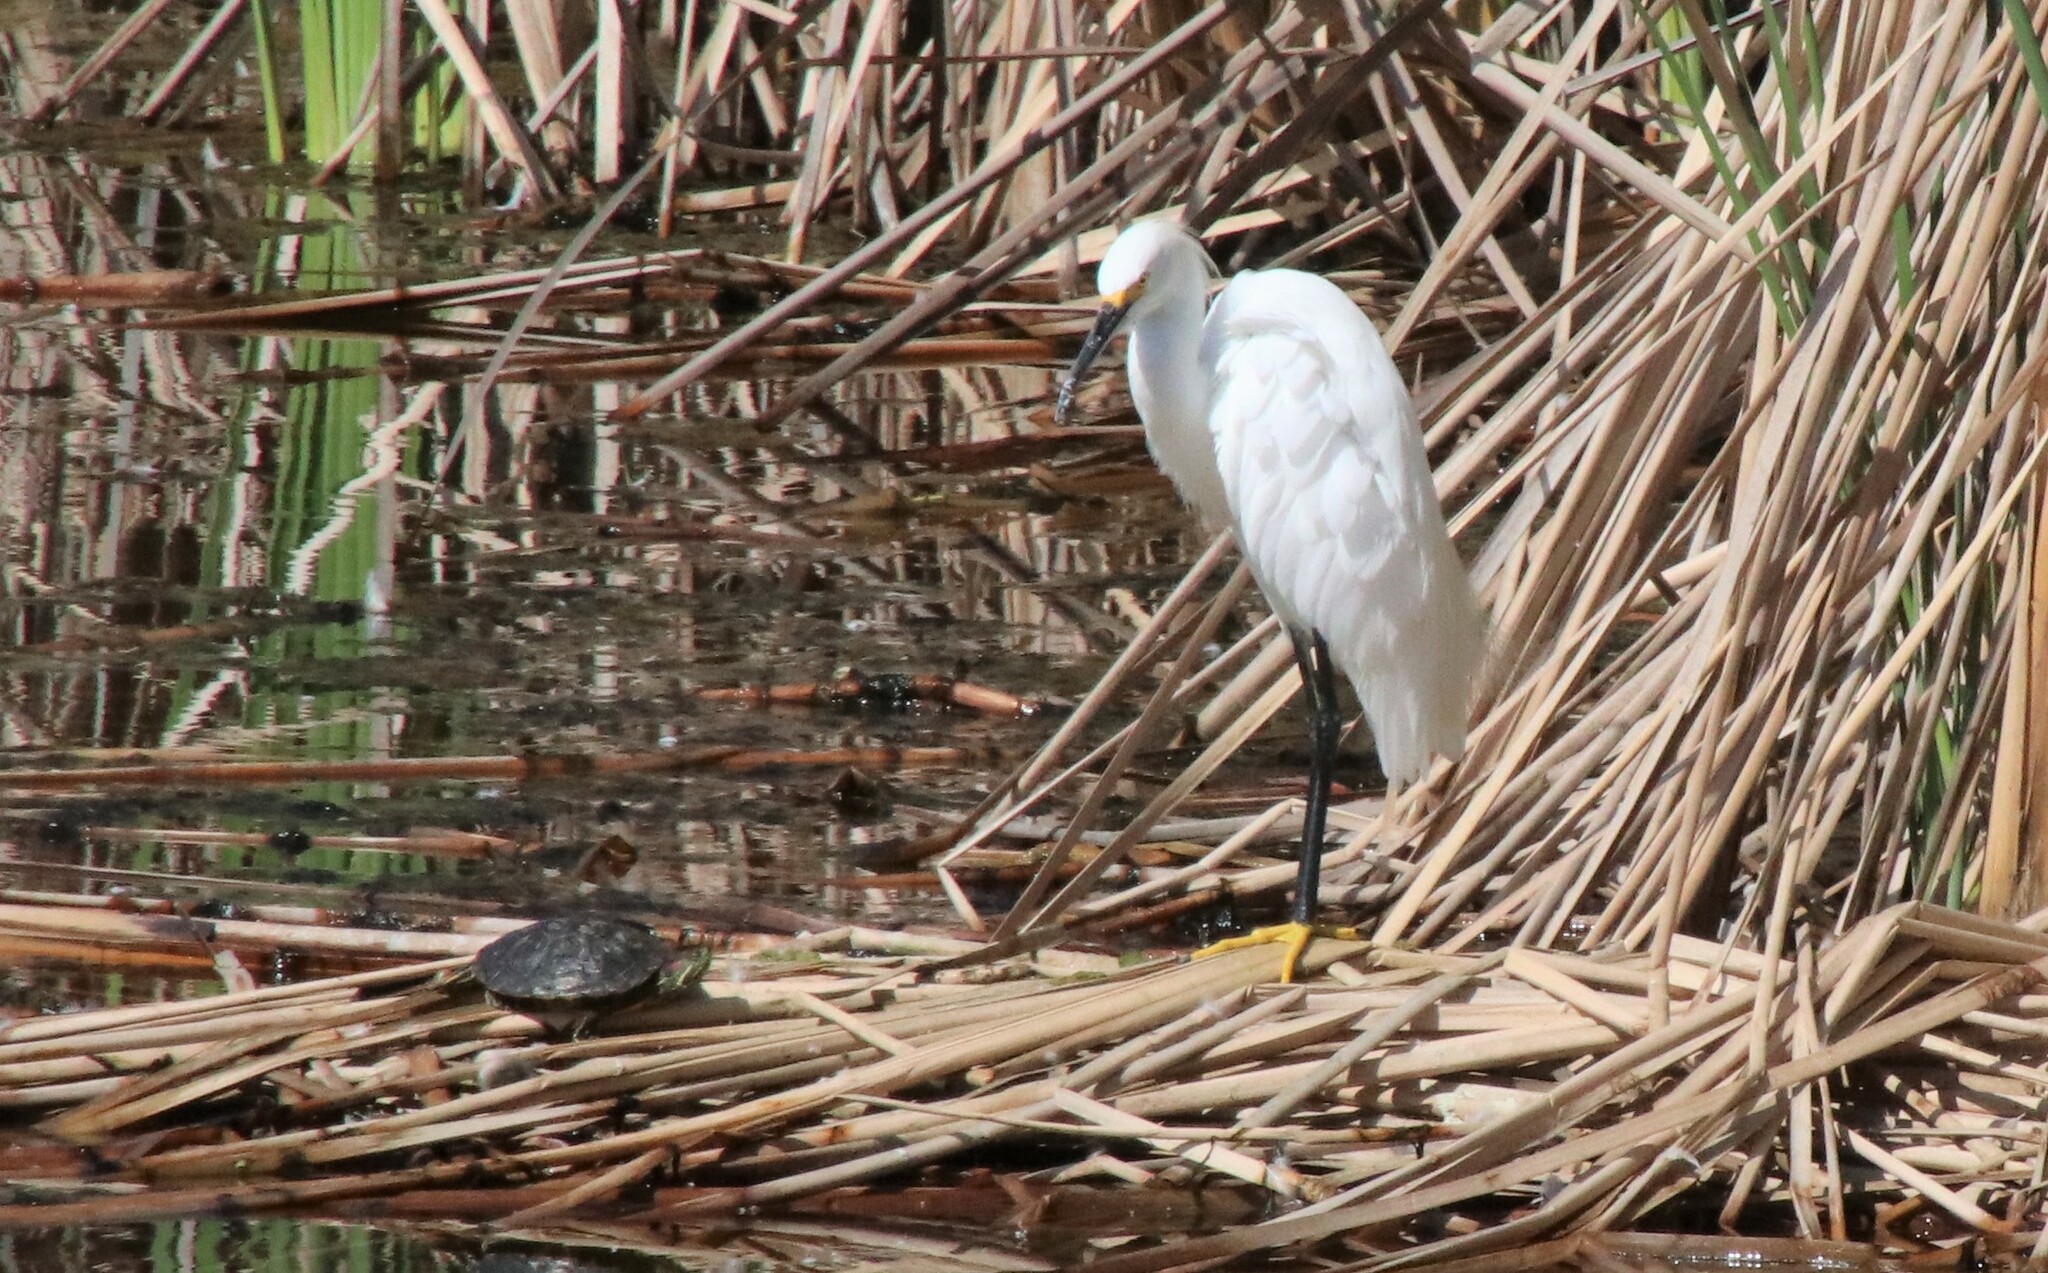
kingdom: Animalia
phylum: Chordata
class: Aves
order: Pelecaniformes
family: Ardeidae
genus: Egretta
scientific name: Egretta thula
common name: Snowy egret
